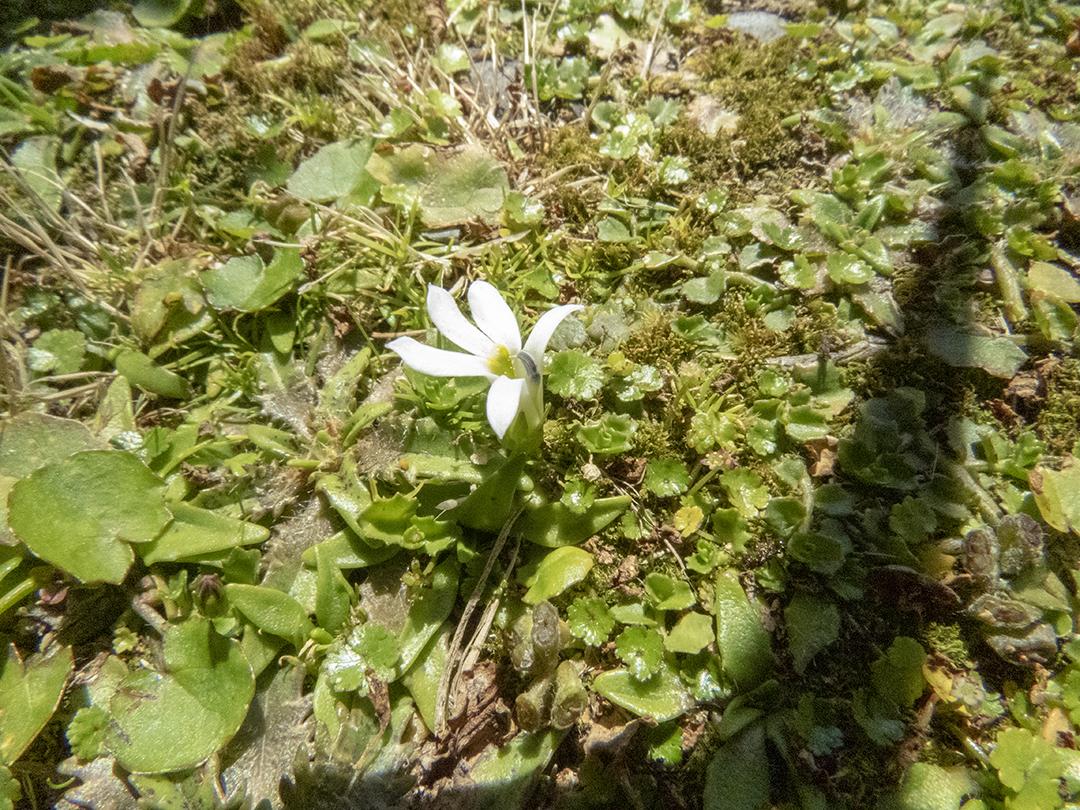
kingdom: Plantae
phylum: Tracheophyta
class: Magnoliopsida
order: Asterales
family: Campanulaceae
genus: Lobelia
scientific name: Lobelia angulata
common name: Lawn lobelia
